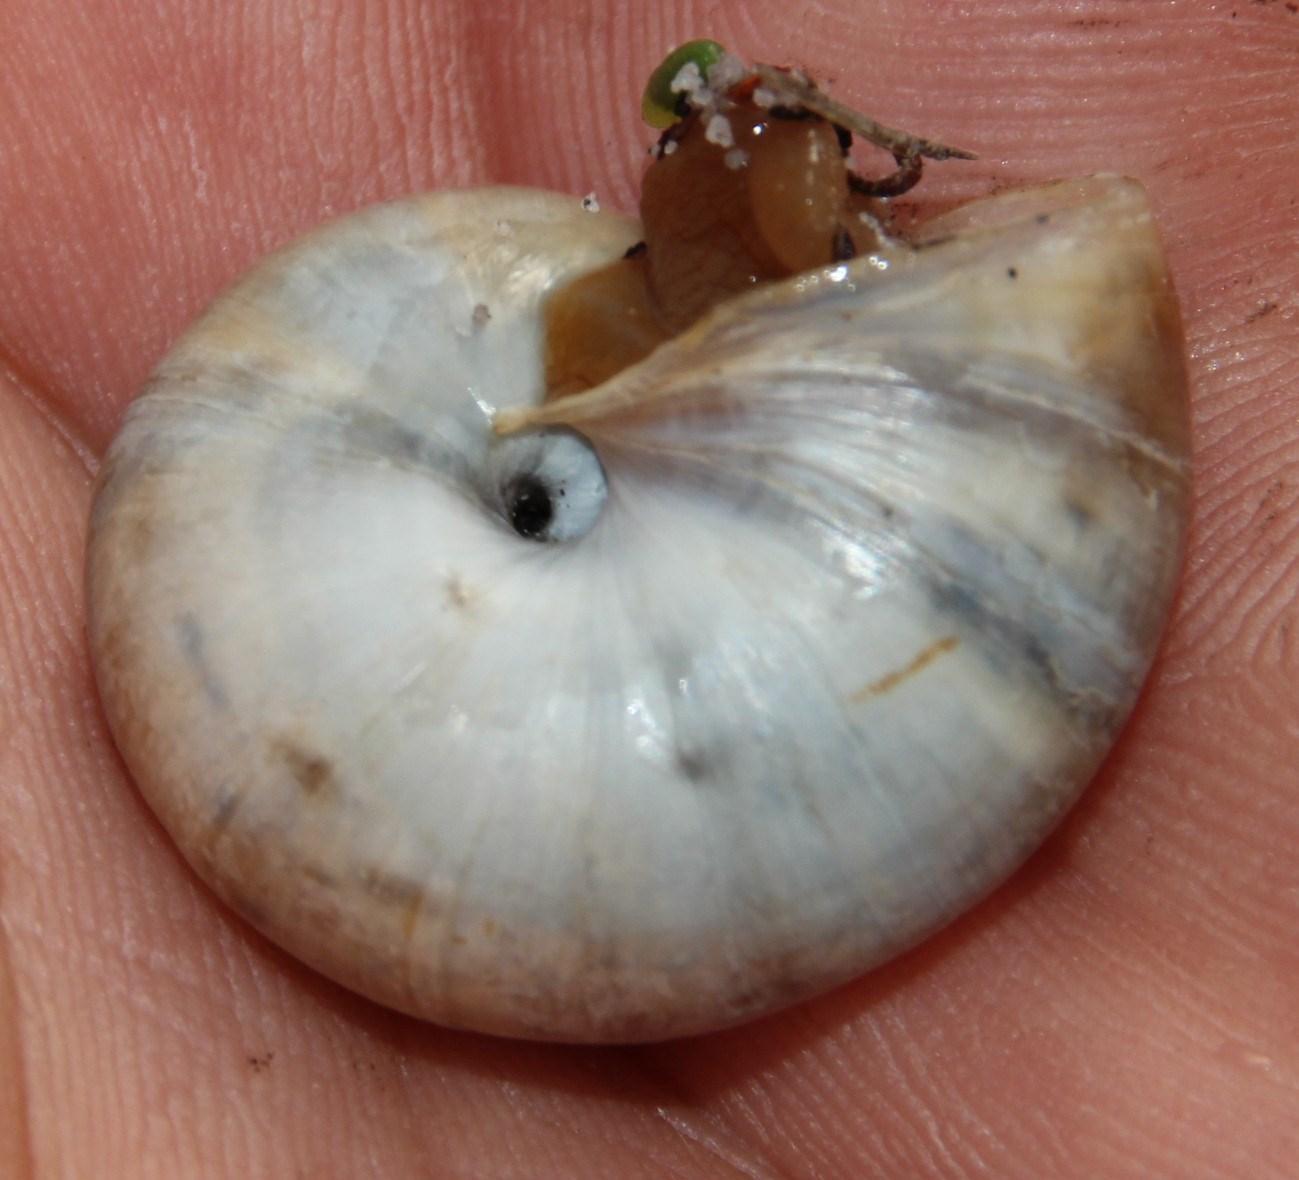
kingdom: Animalia
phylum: Mollusca
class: Gastropoda
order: Stylommatophora
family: Charopidae
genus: Phortion
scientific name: Phortion menkeanum
